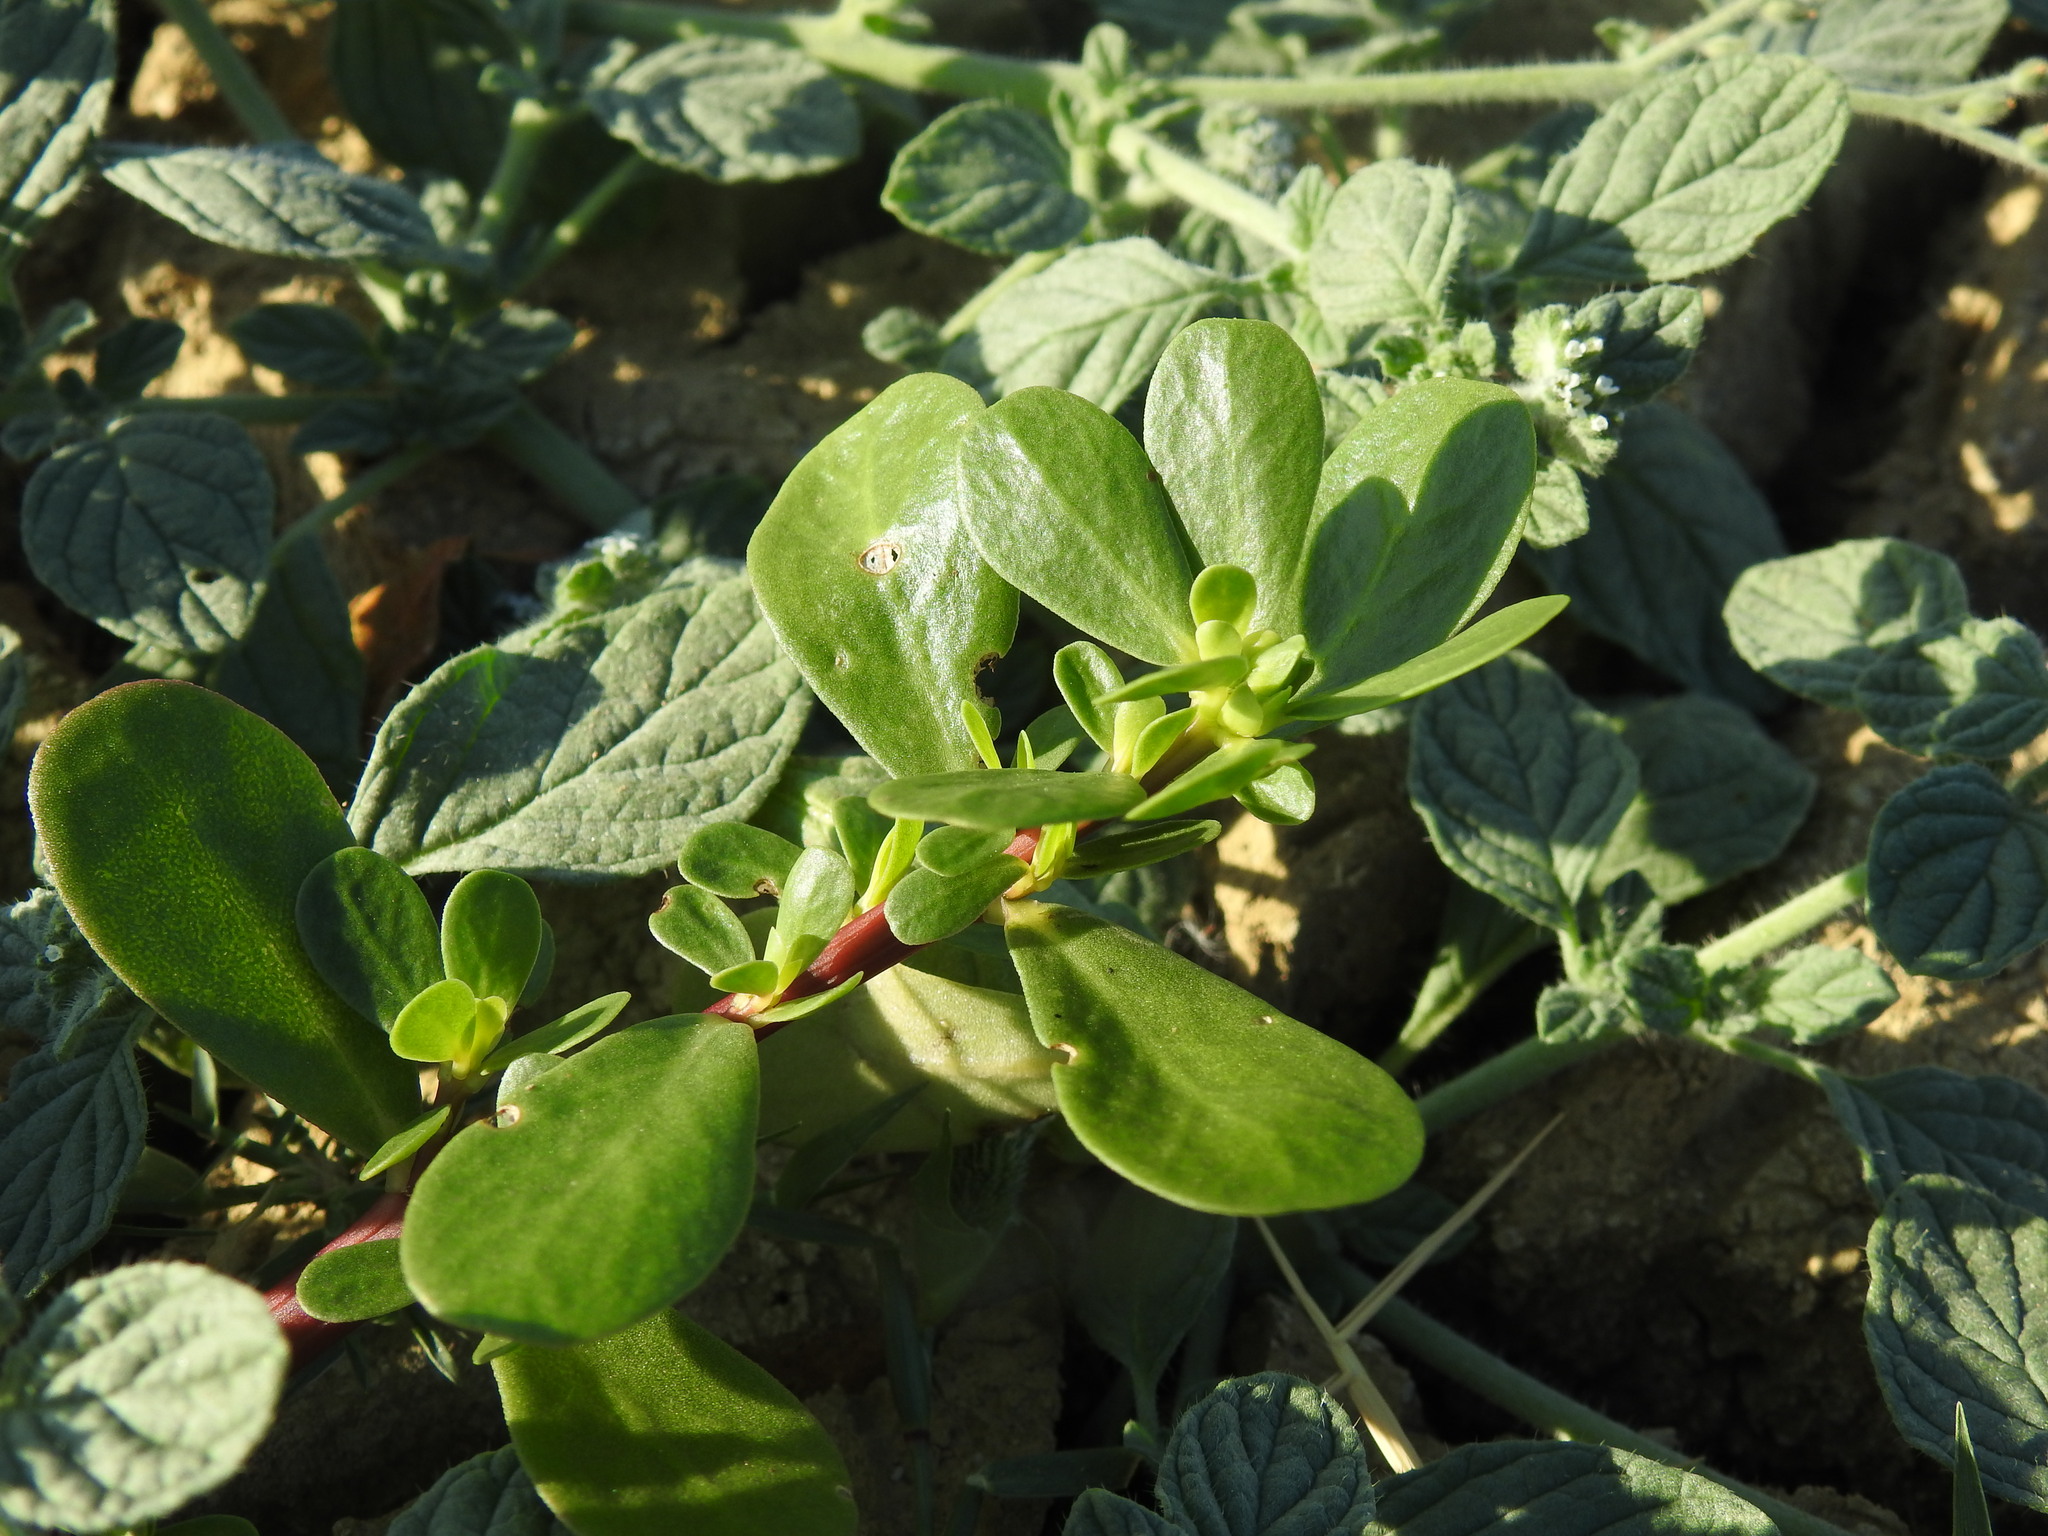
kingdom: Plantae
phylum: Tracheophyta
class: Magnoliopsida
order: Caryophyllales
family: Portulacaceae
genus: Portulaca
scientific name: Portulaca oleracea
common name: Common purslane
